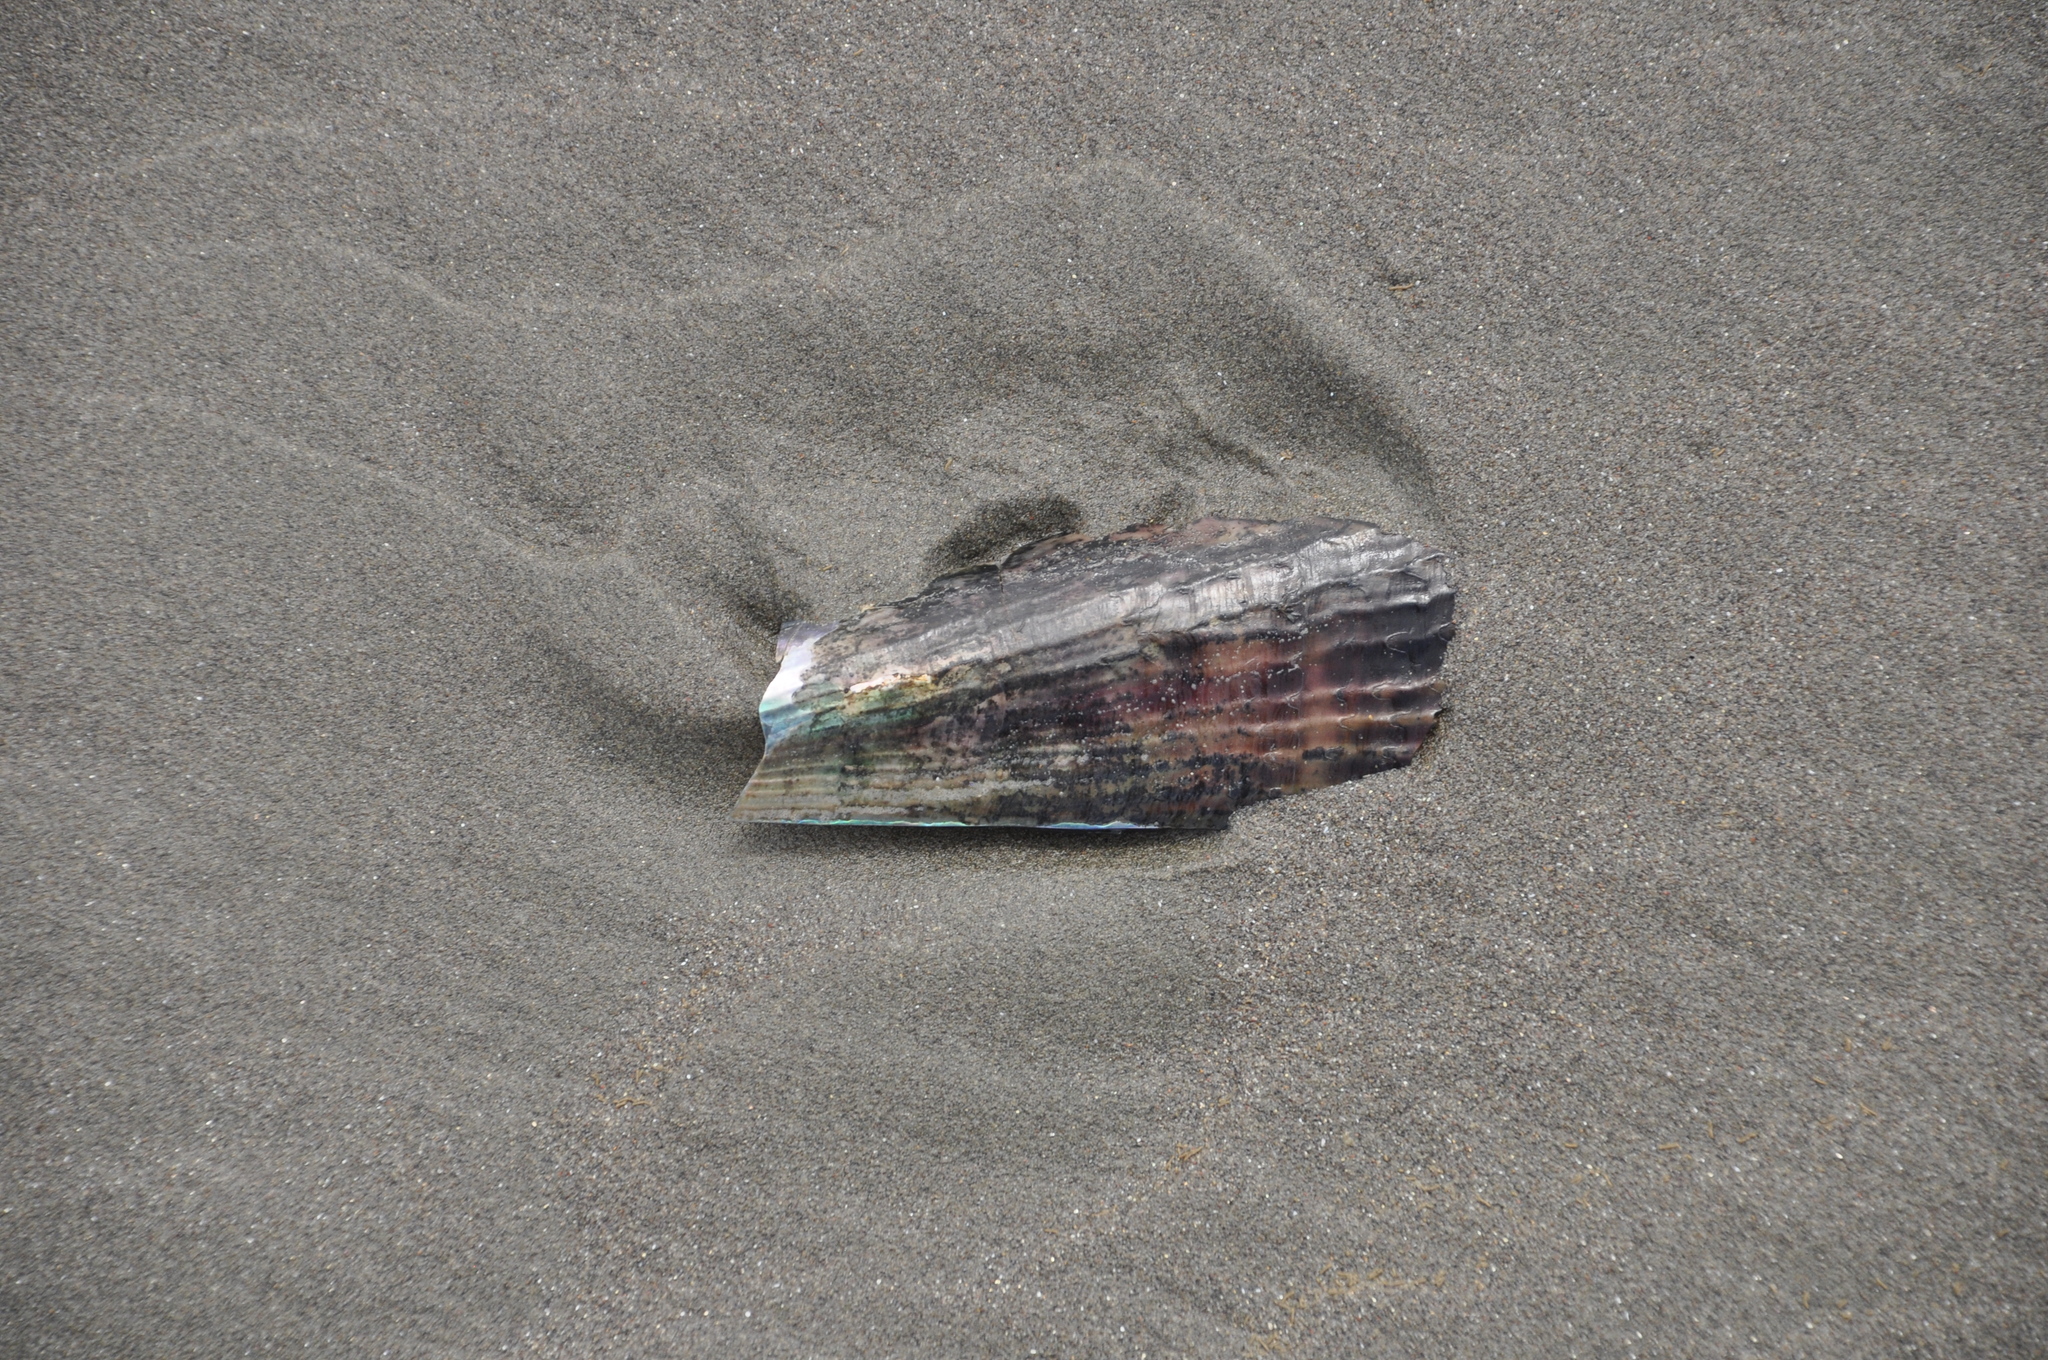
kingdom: Animalia
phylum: Mollusca
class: Bivalvia
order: Ostreida
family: Pinnidae
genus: Atrina
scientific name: Atrina zelandica
